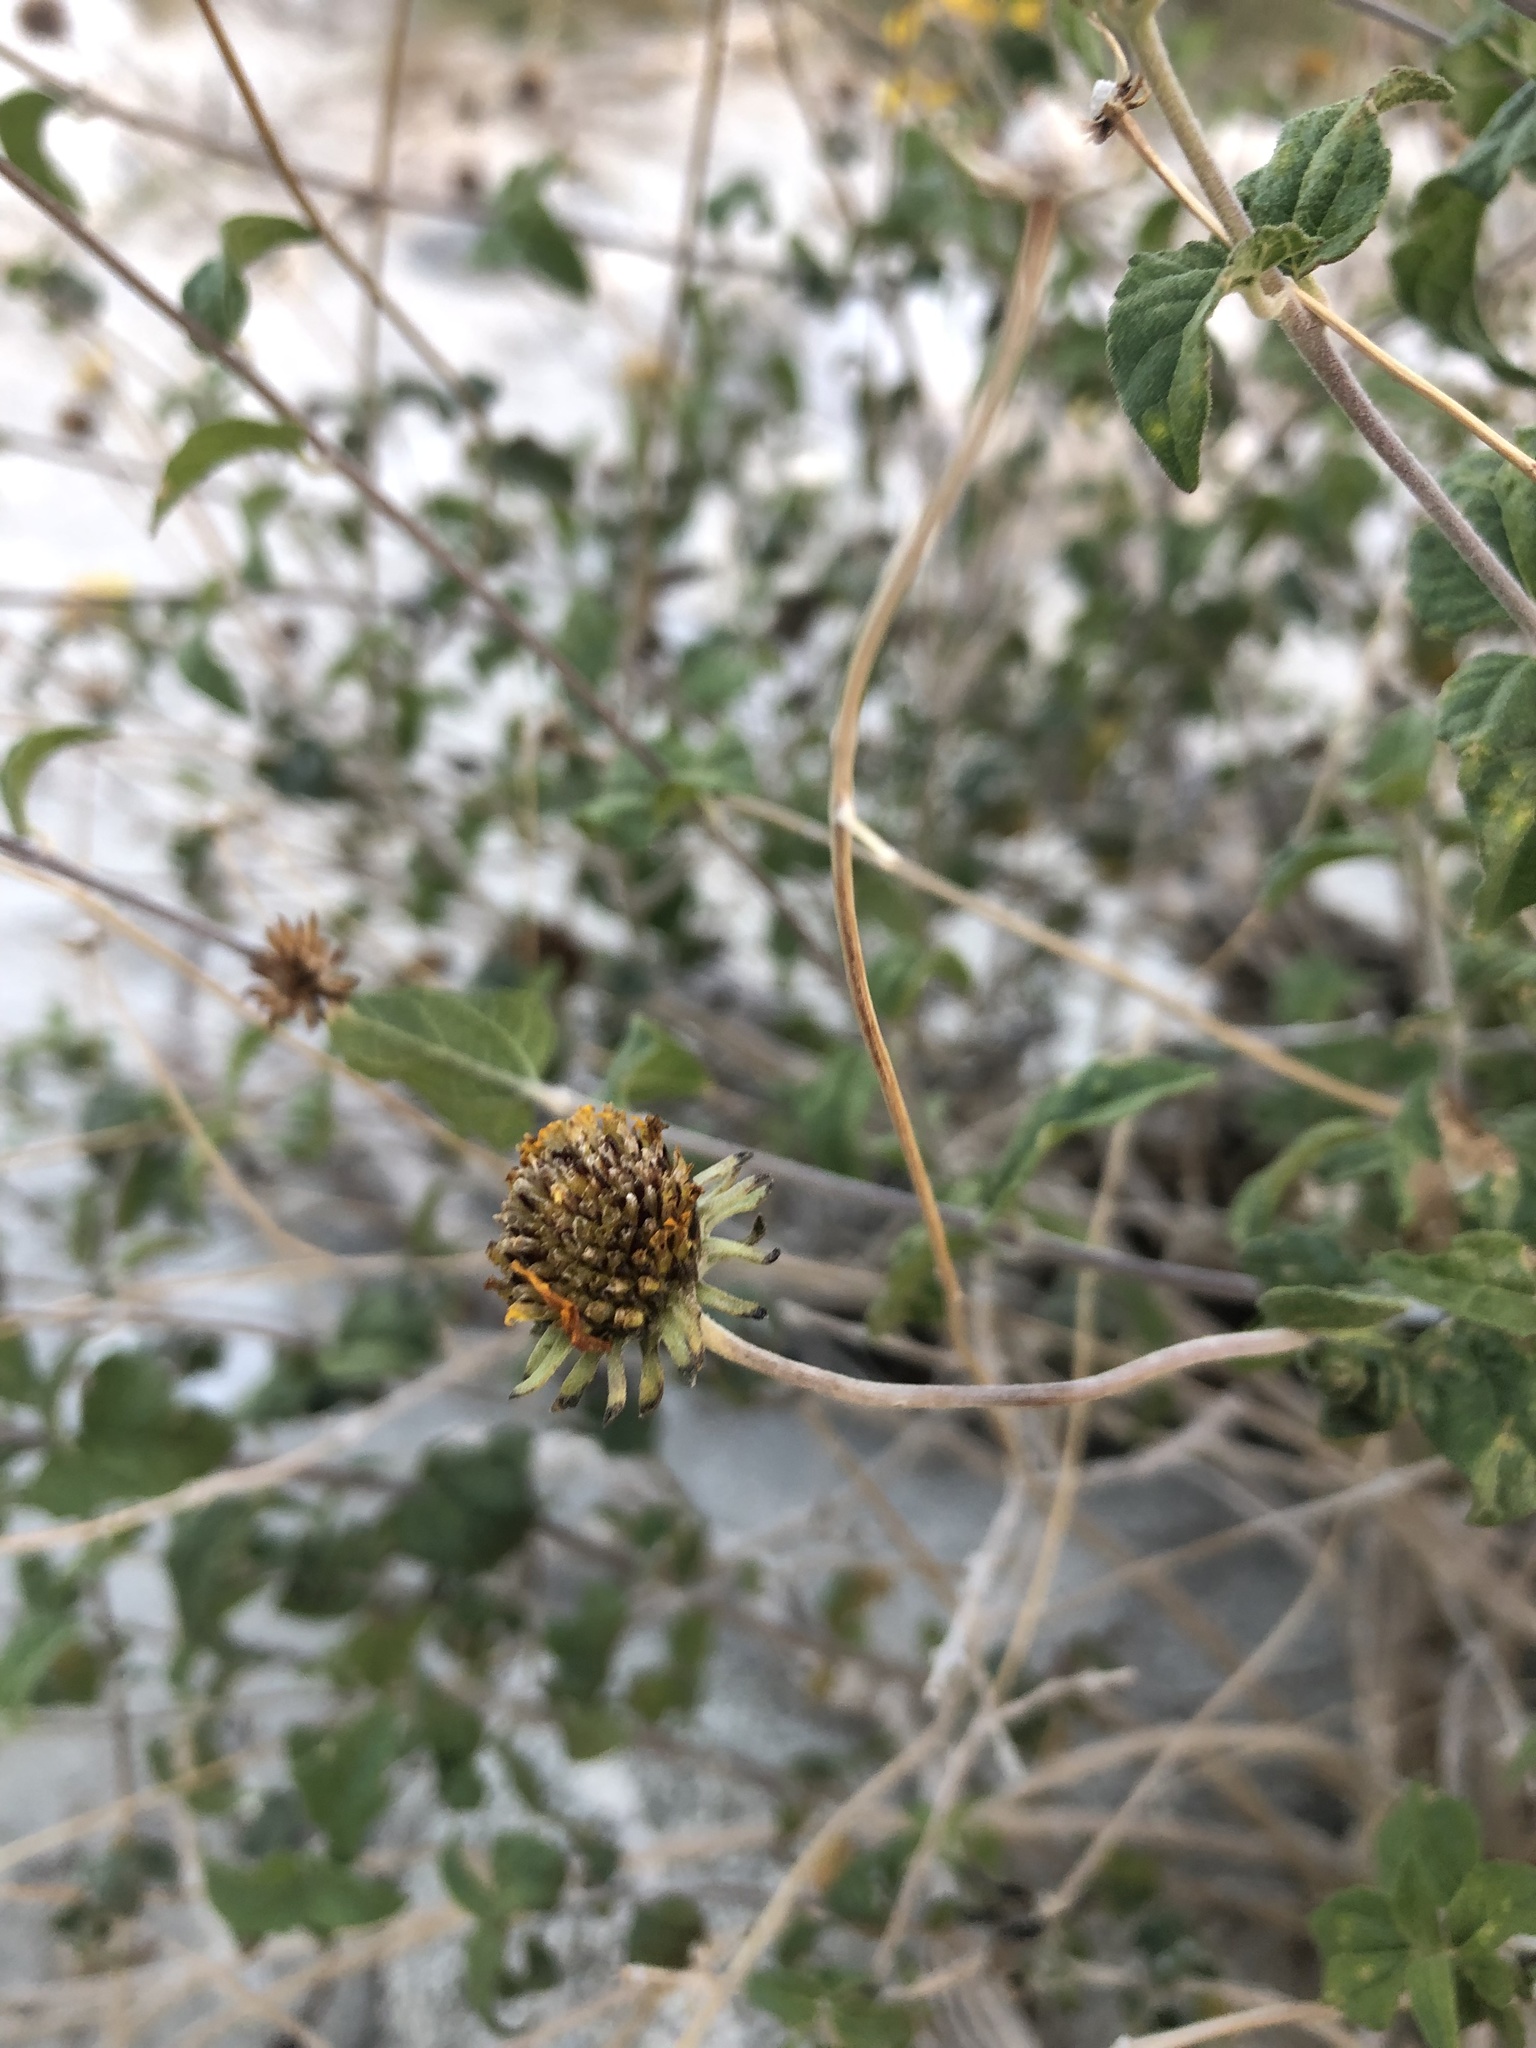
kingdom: Plantae
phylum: Tracheophyta
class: Magnoliopsida
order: Asterales
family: Asteraceae
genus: Bahiopsis
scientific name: Bahiopsis parishii
